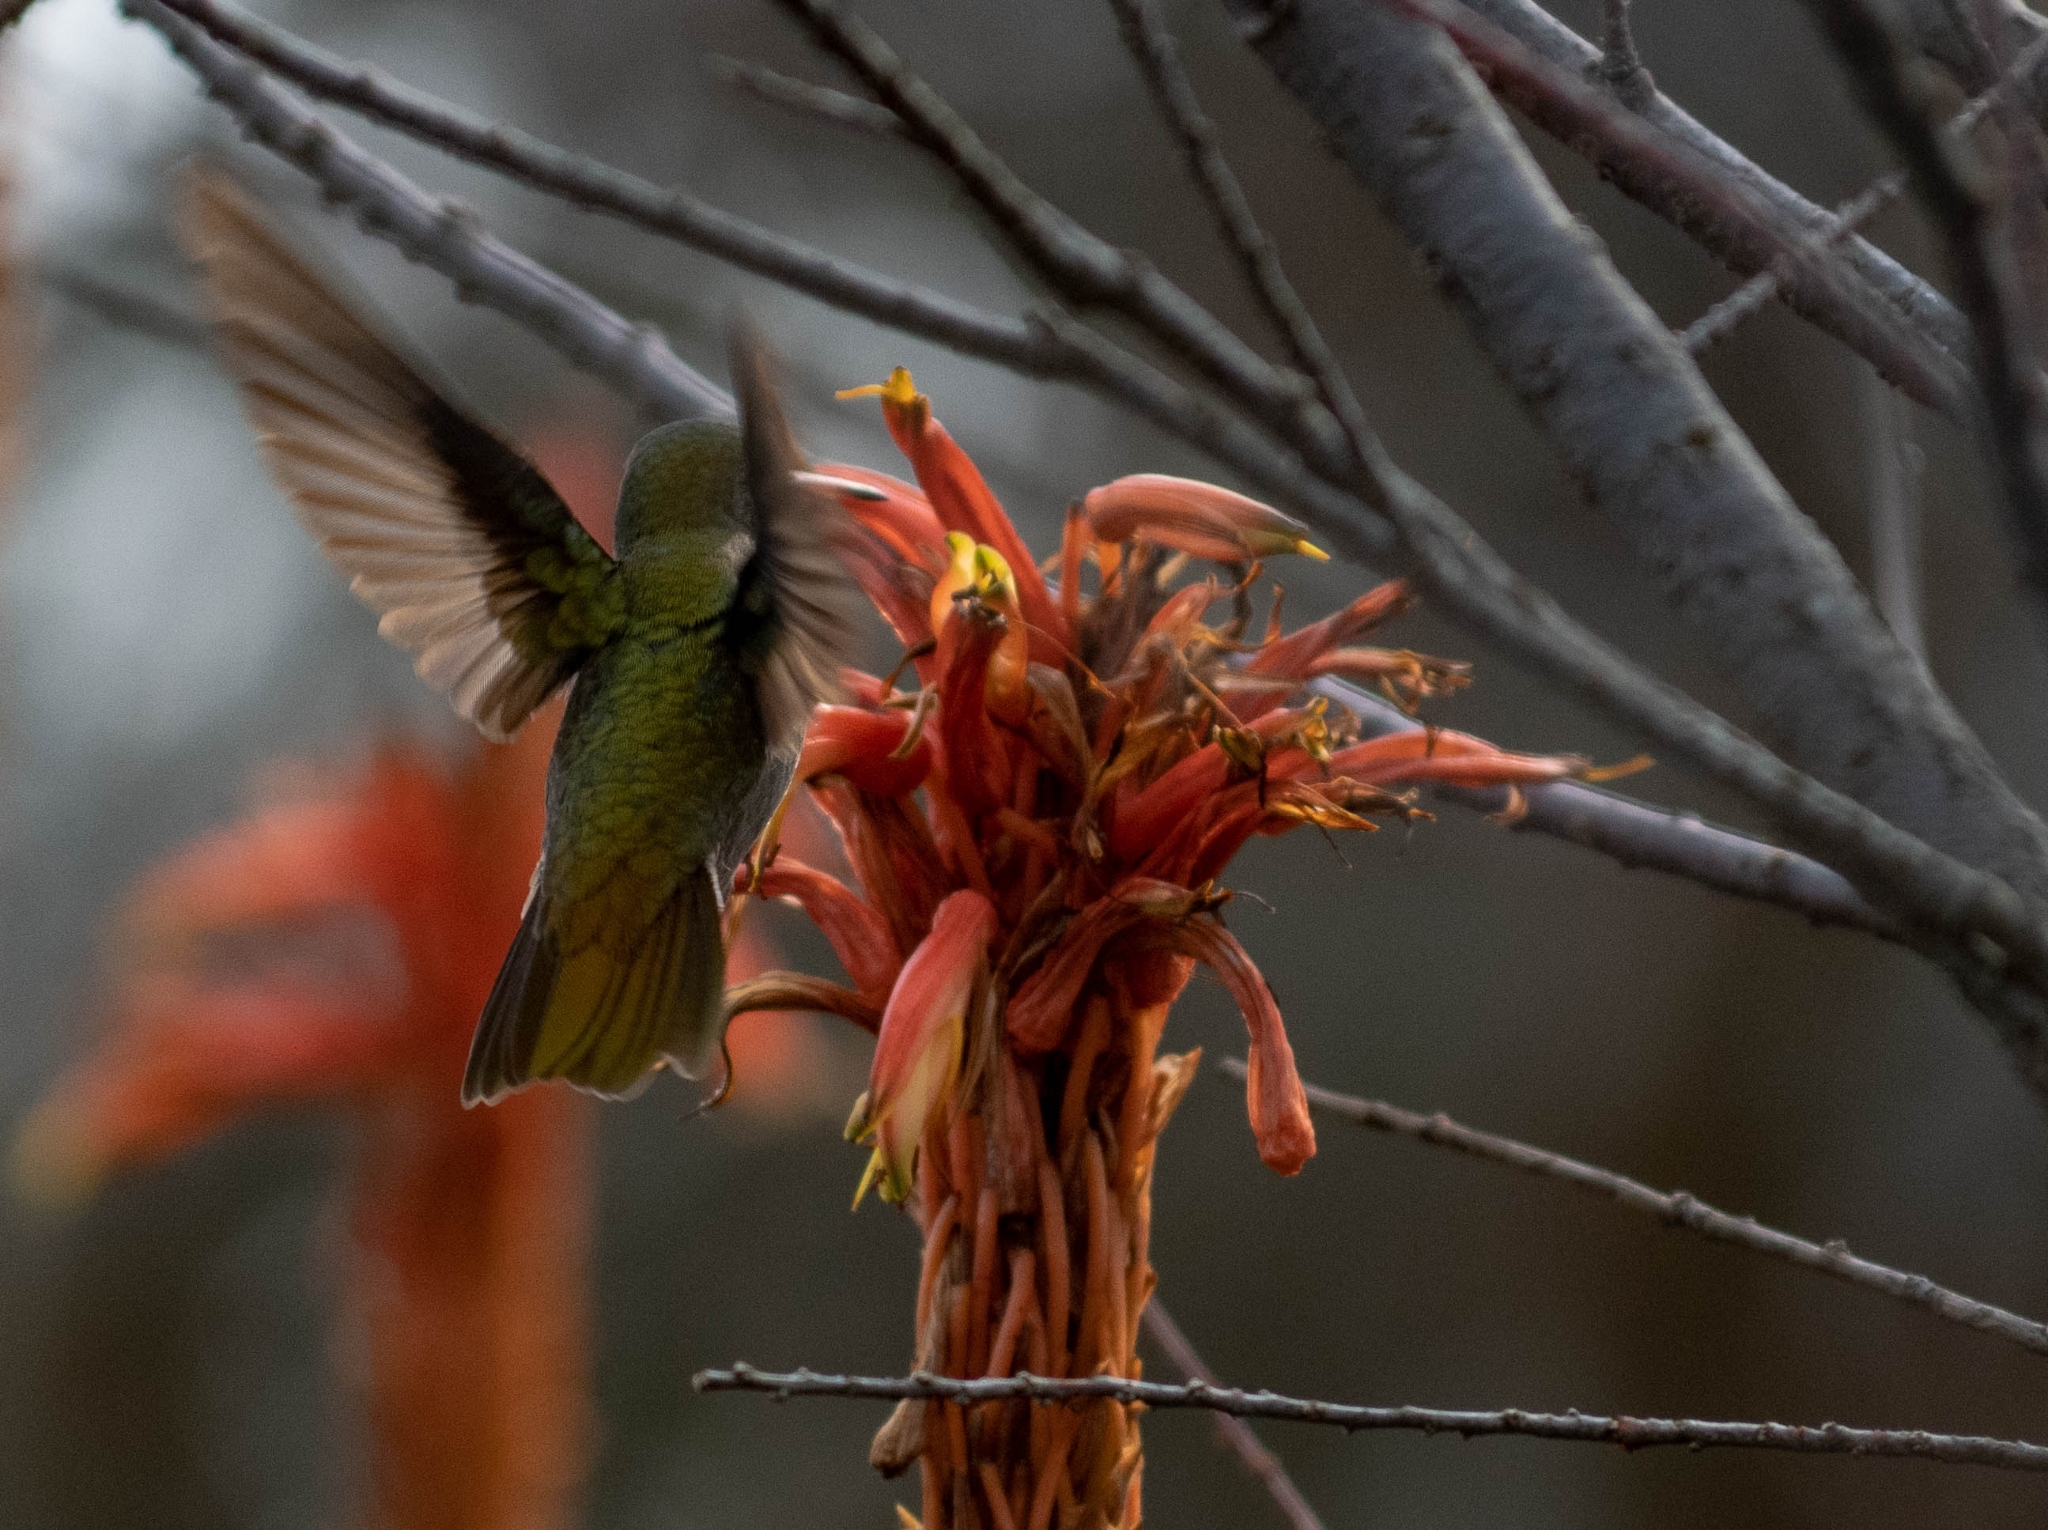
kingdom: Animalia
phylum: Chordata
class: Aves
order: Apodiformes
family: Trochilidae
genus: Hylocharis
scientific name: Hylocharis chrysura
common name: Gilded sapphire
